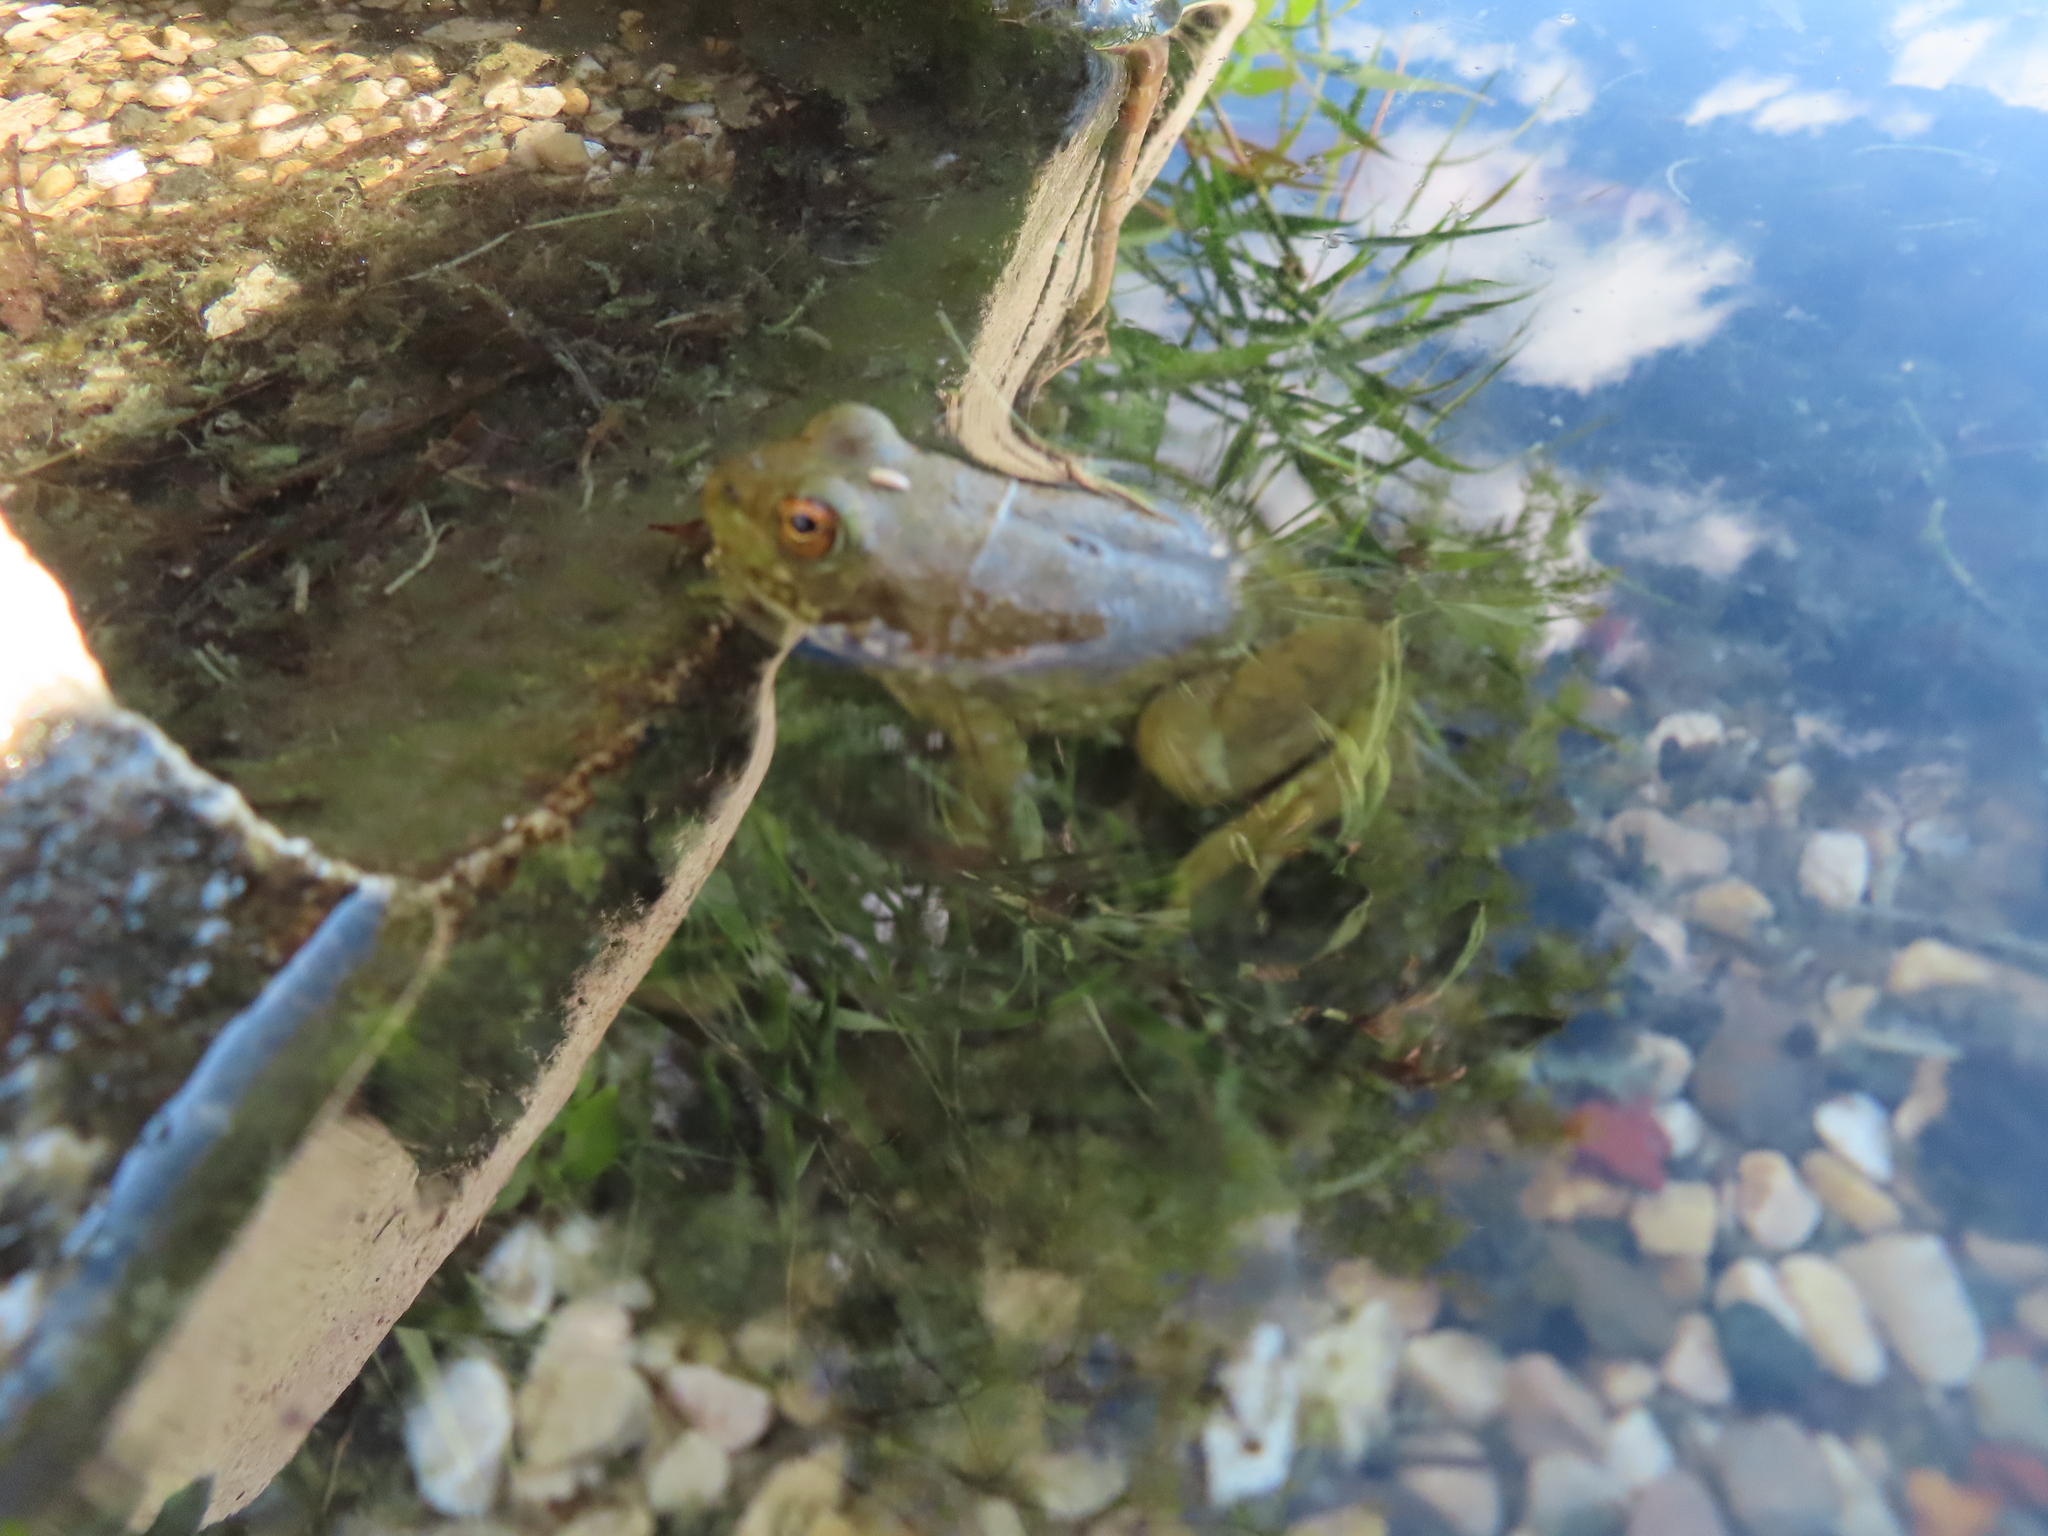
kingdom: Animalia
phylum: Chordata
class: Amphibia
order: Anura
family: Ranidae
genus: Lithobates
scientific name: Lithobates catesbeianus
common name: American bullfrog
